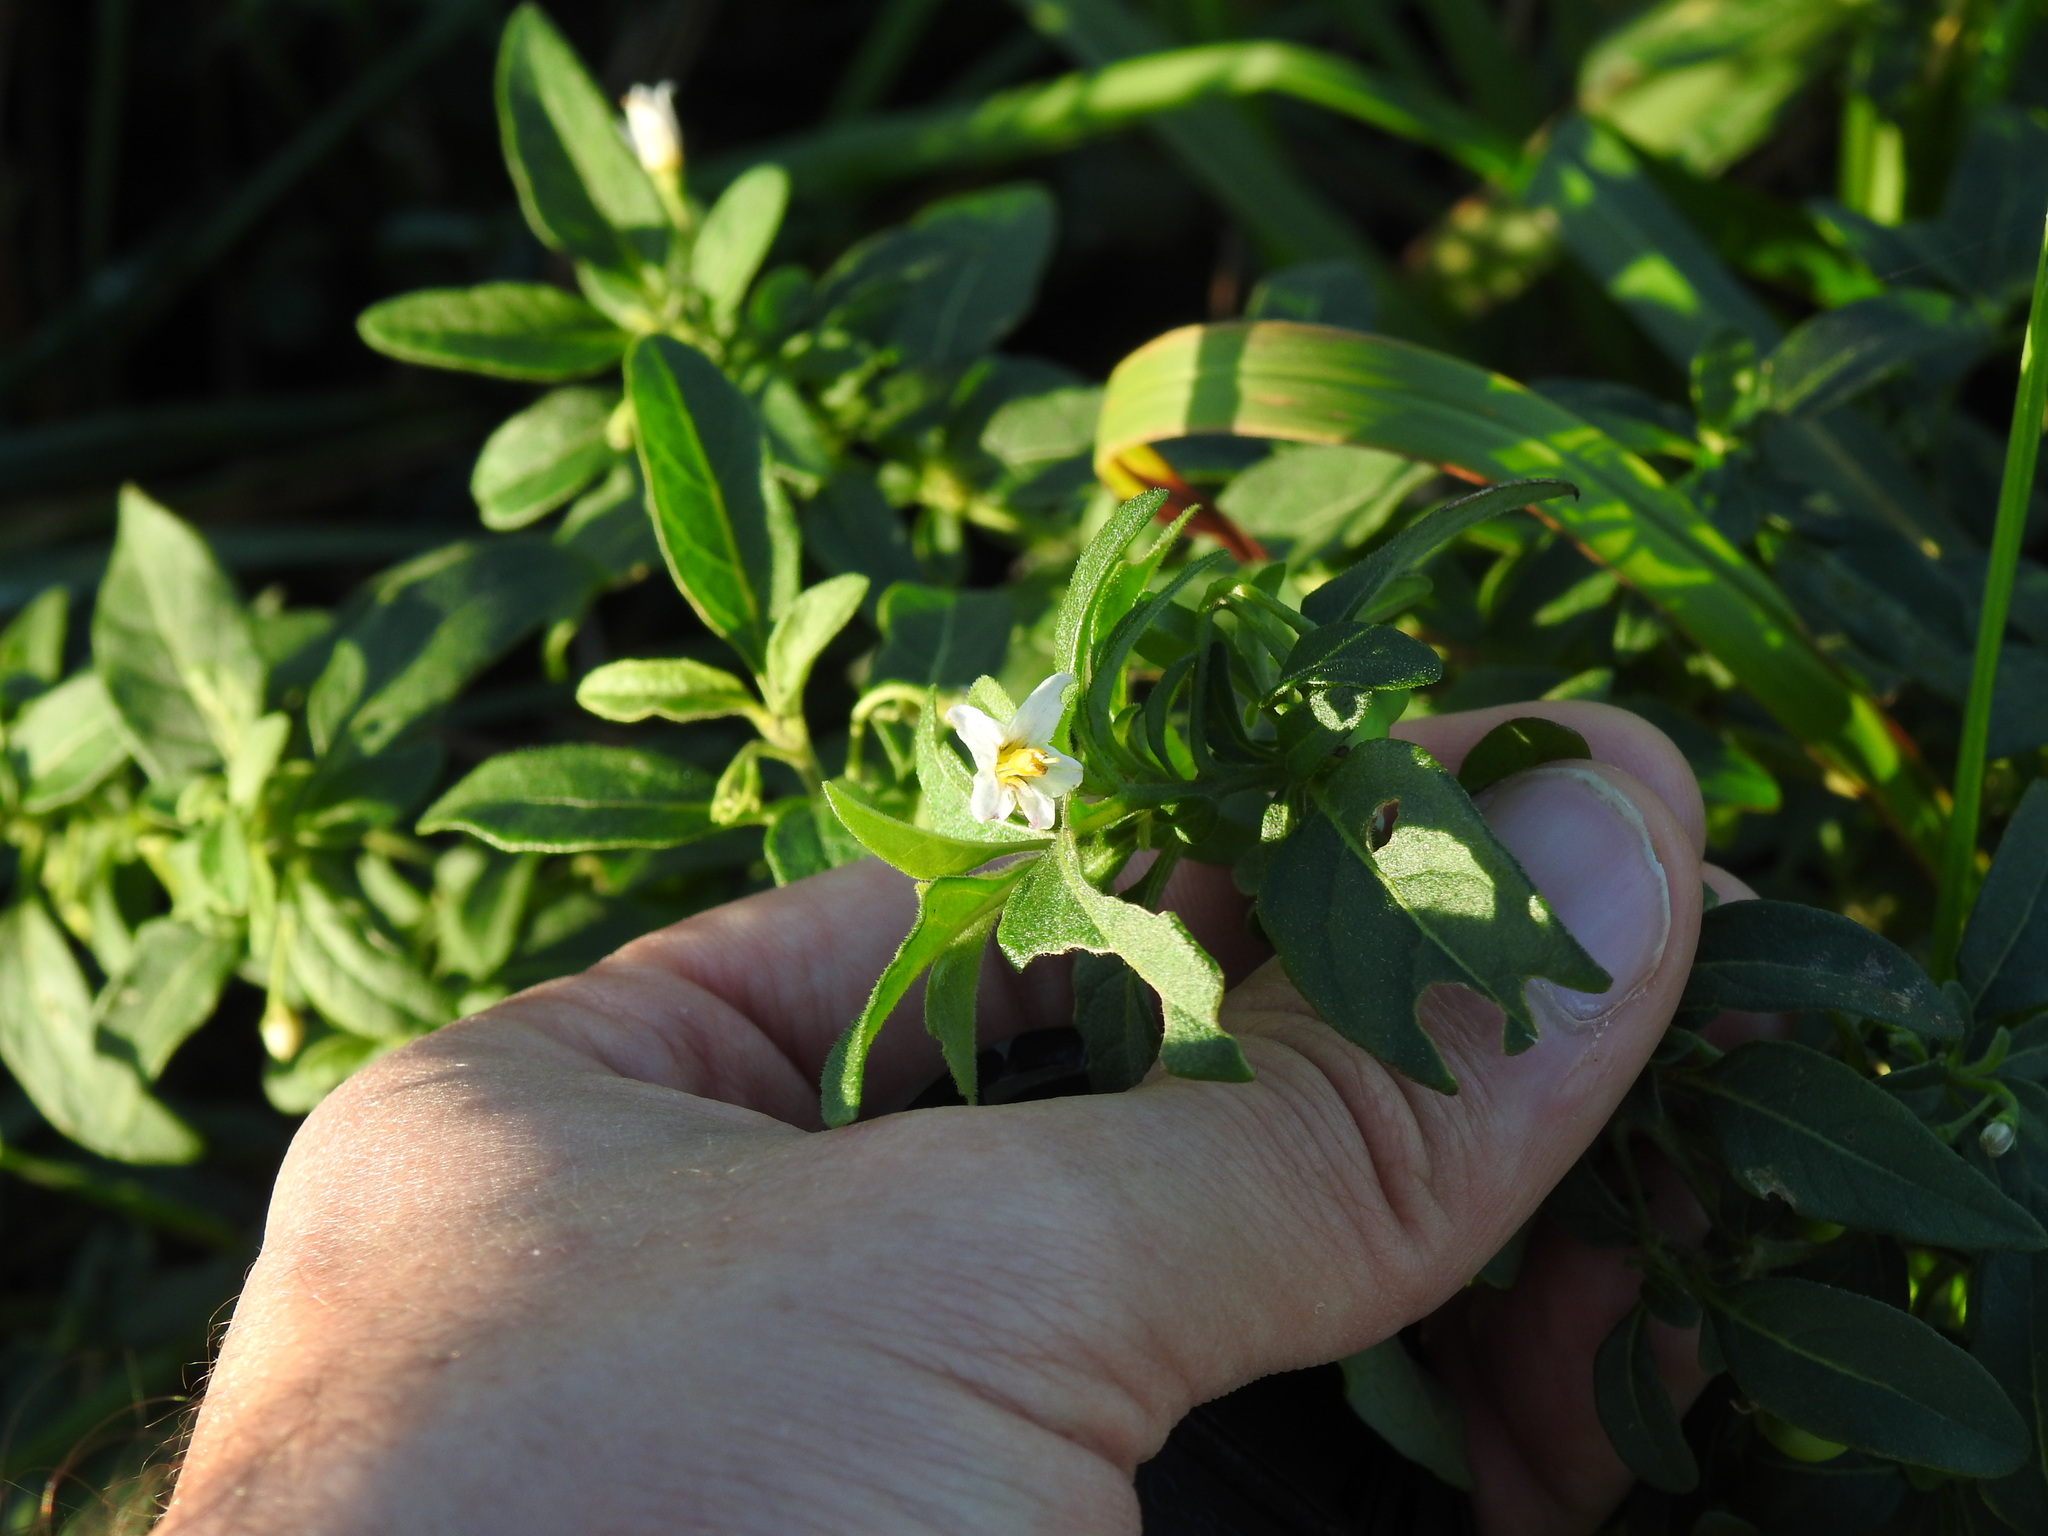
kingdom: Plantae
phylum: Tracheophyta
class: Magnoliopsida
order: Solanales
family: Solanaceae
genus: Solanum
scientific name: Solanum chenopodioides
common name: Tall nightshade
